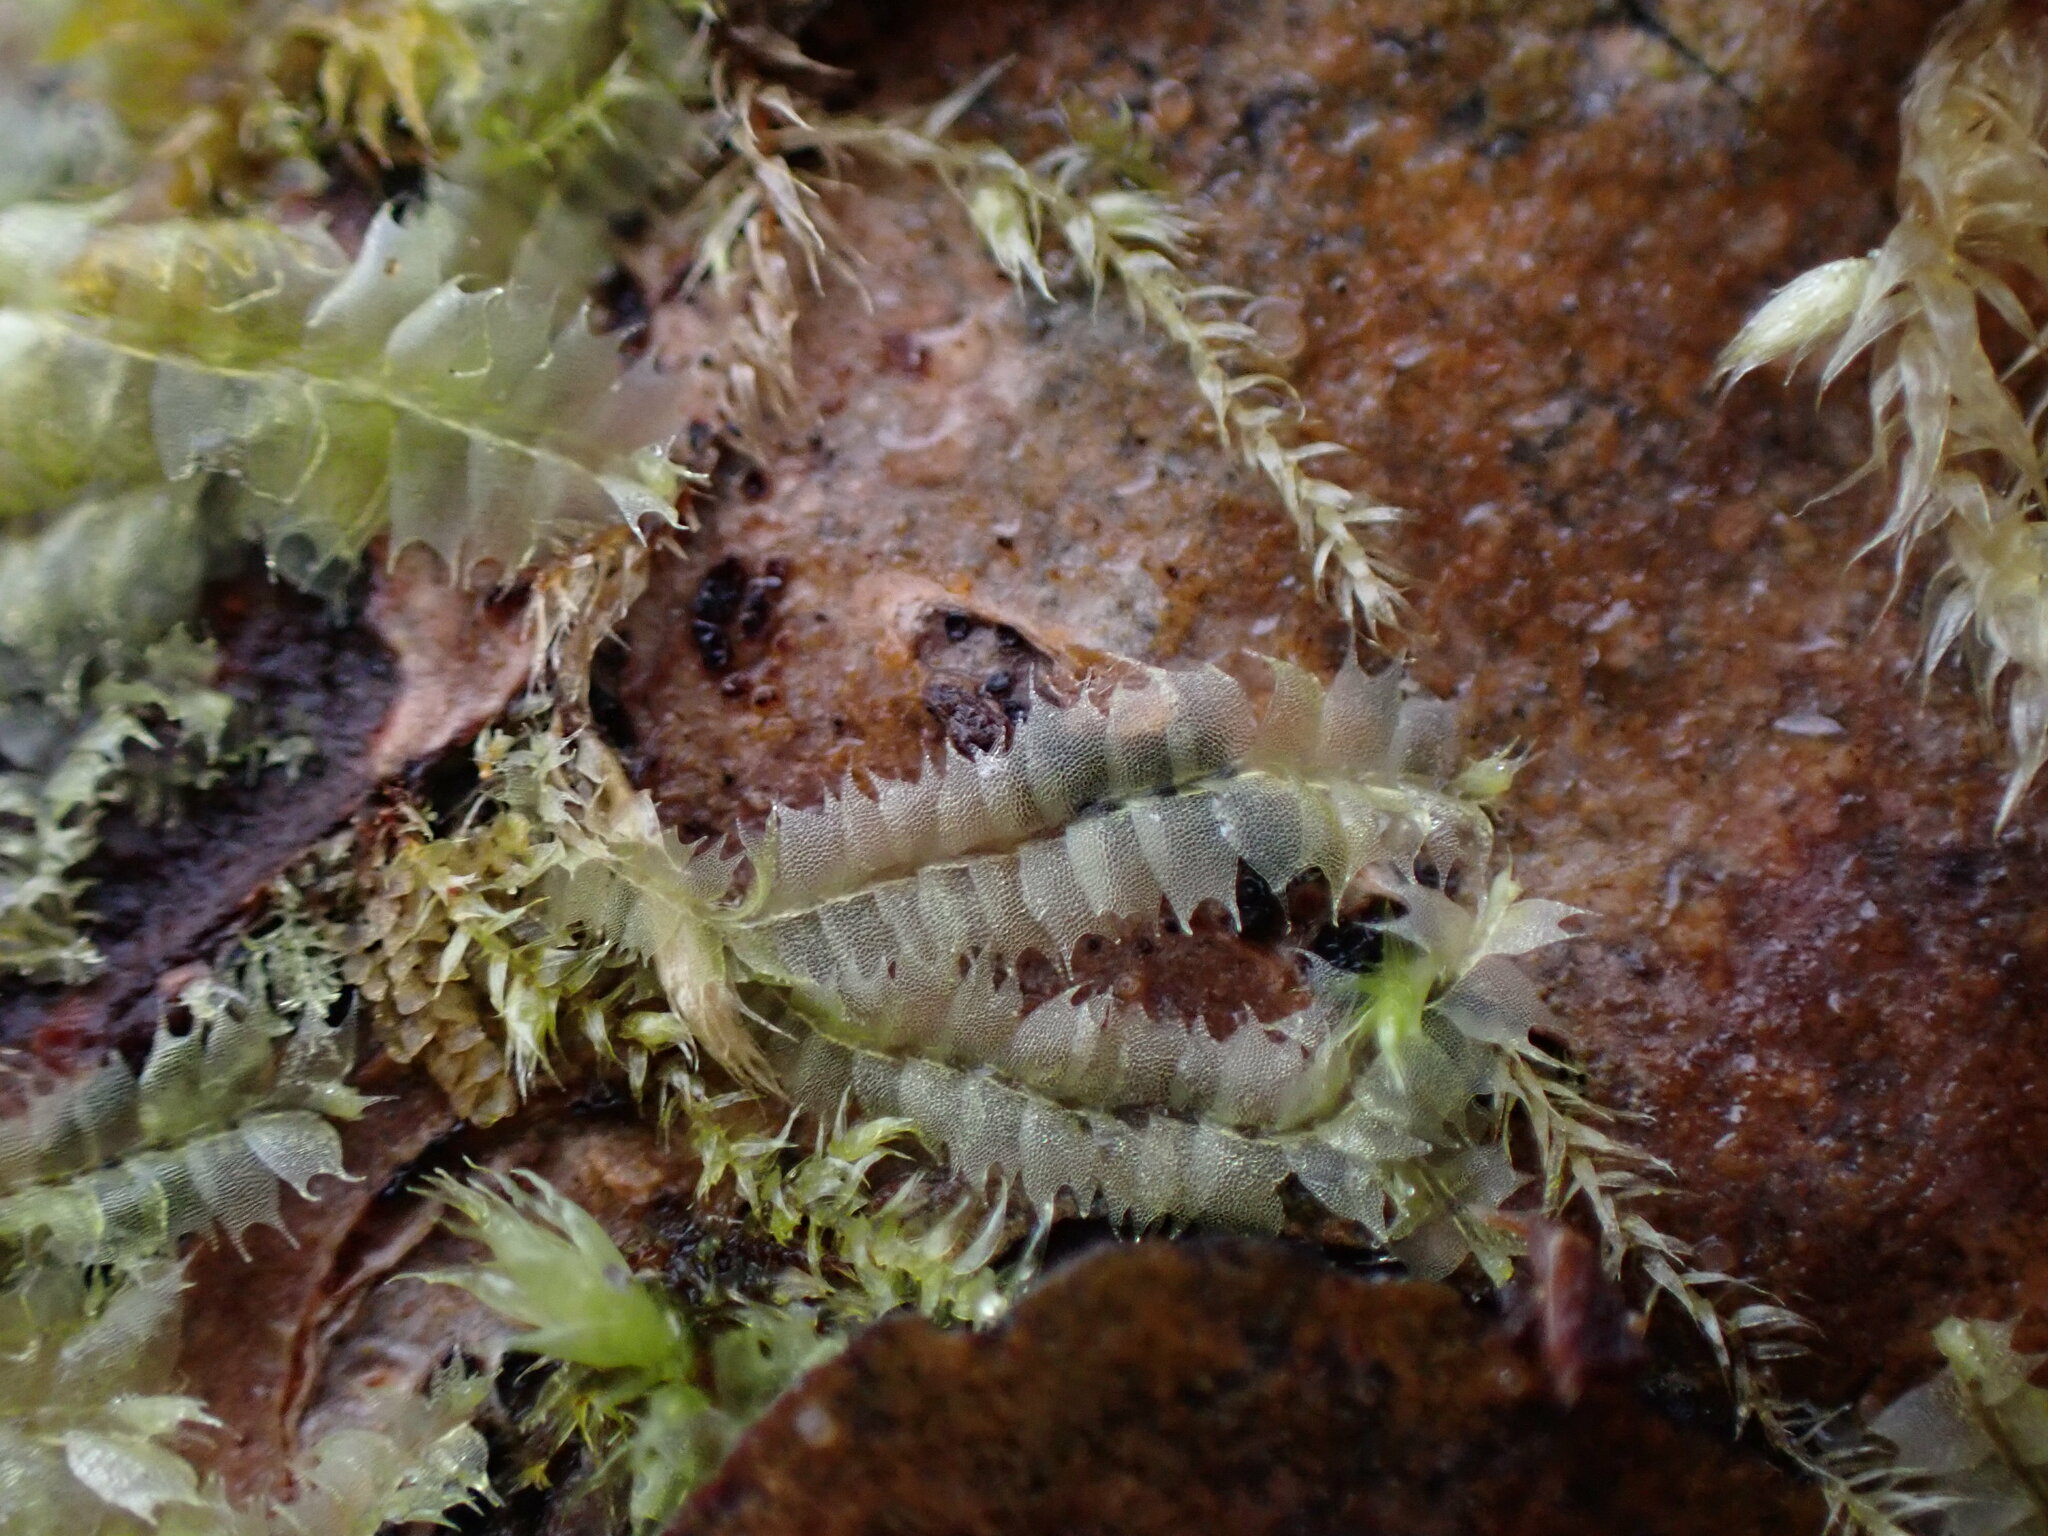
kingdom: Plantae
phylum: Marchantiophyta
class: Jungermanniopsida
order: Jungermanniales
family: Lophocoleaceae
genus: Lophocolea
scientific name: Lophocolea bidentata
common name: Bifid crestwort
